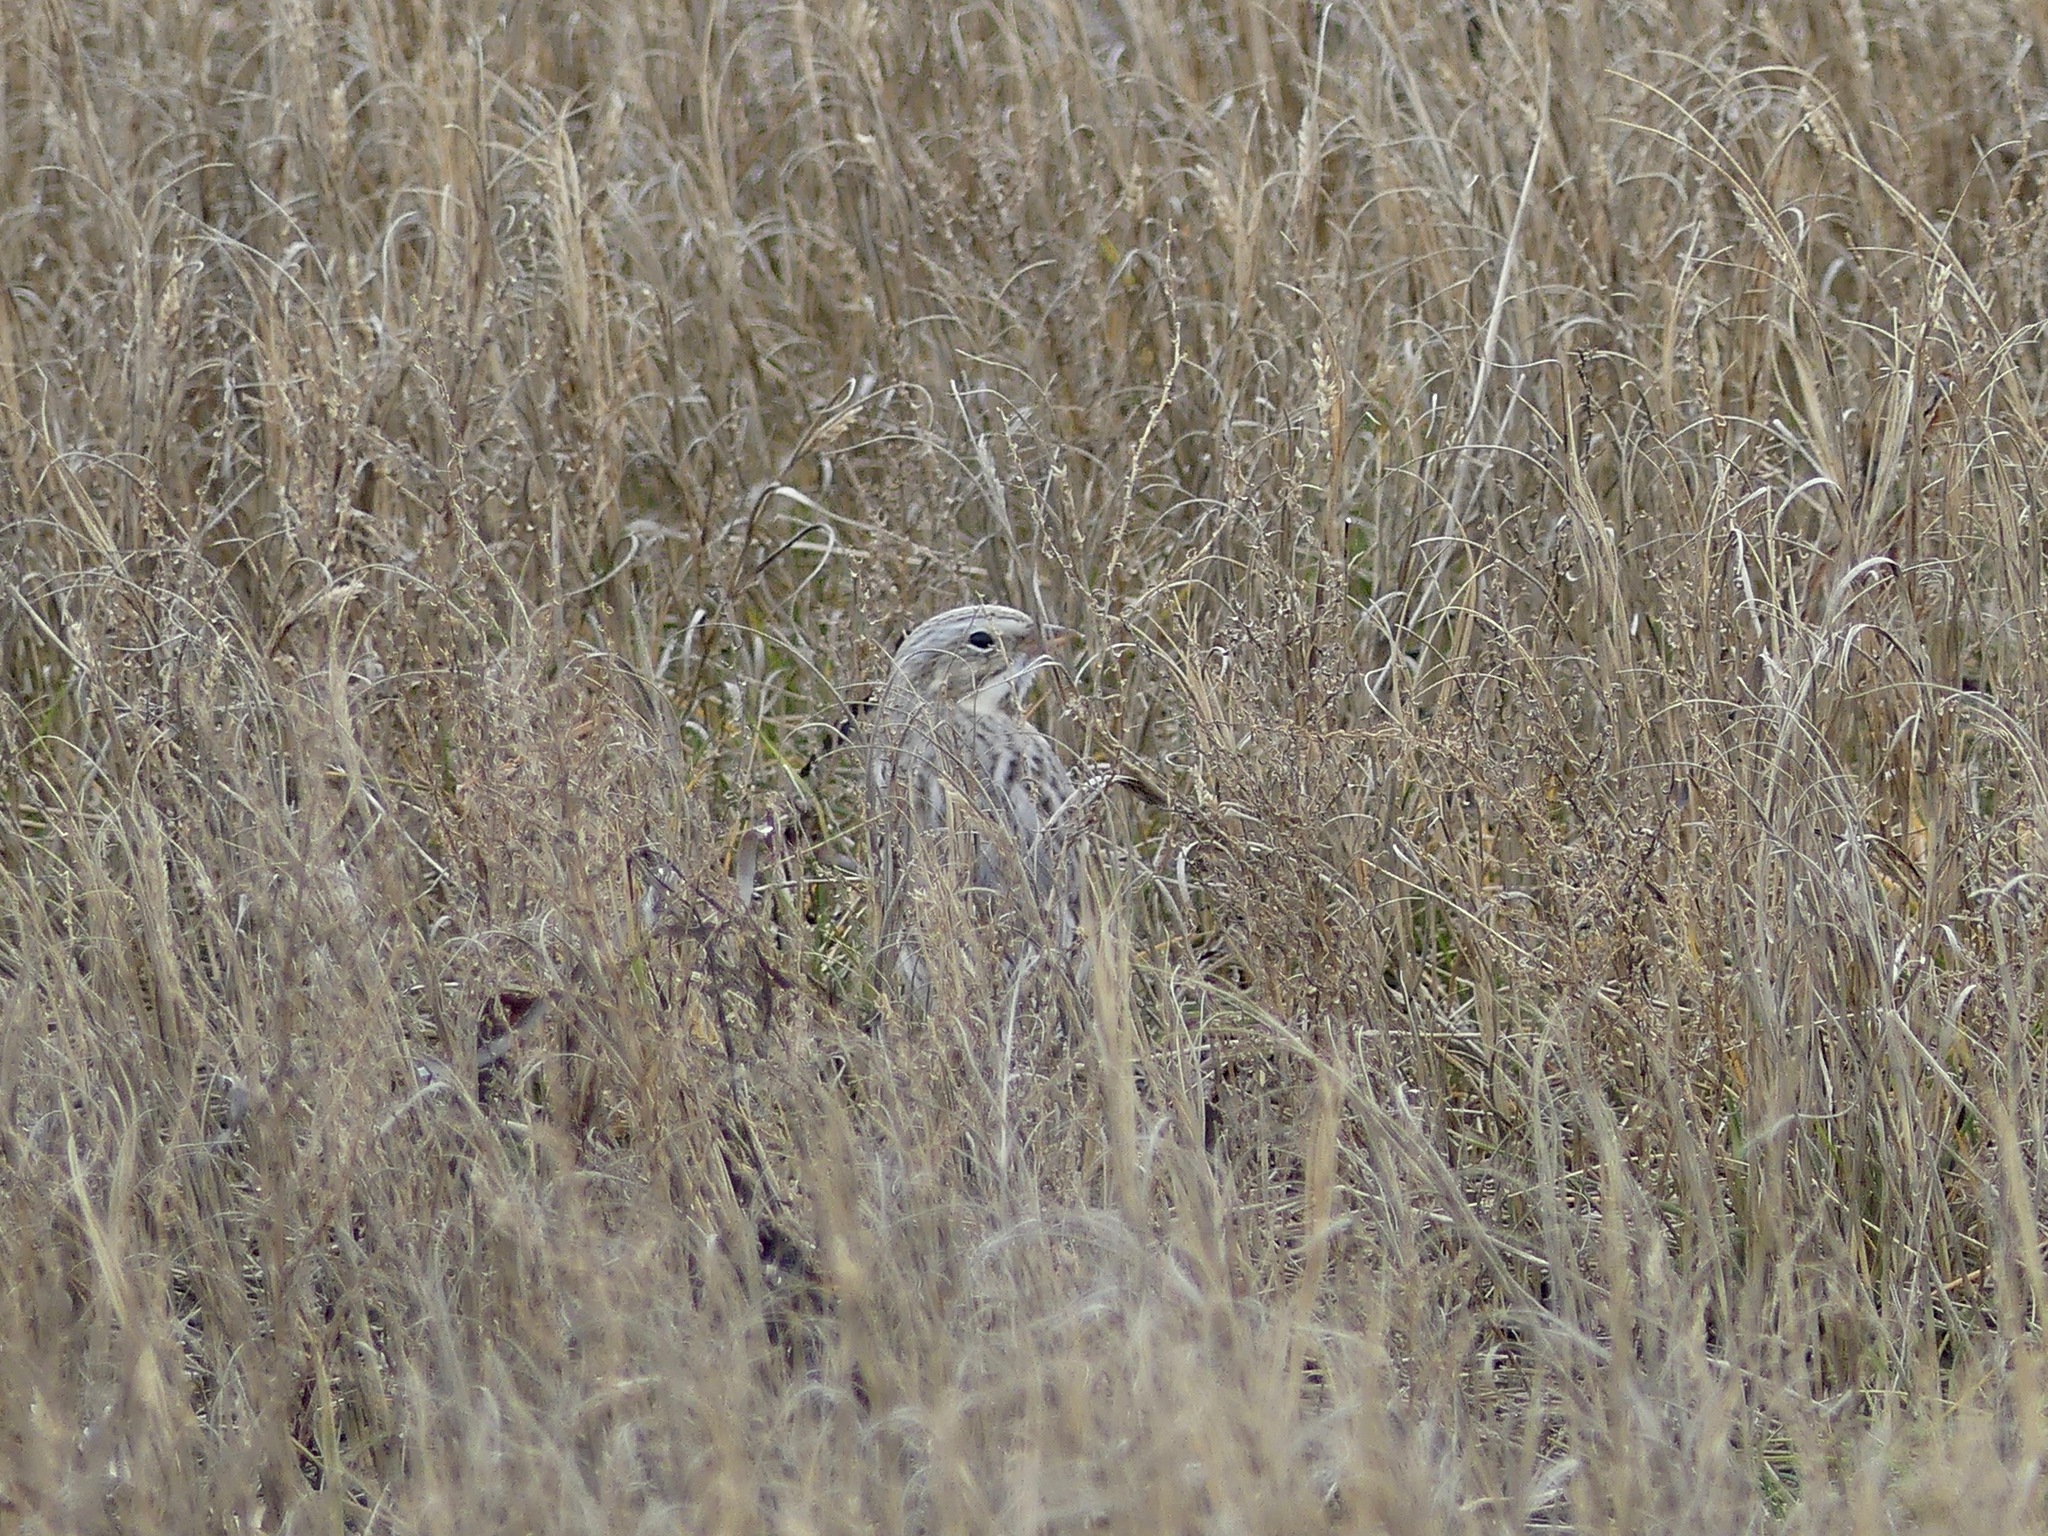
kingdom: Animalia
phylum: Chordata
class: Aves
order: Passeriformes
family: Passerellidae
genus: Passerculus
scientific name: Passerculus sandwichensis
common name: Savannah sparrow
